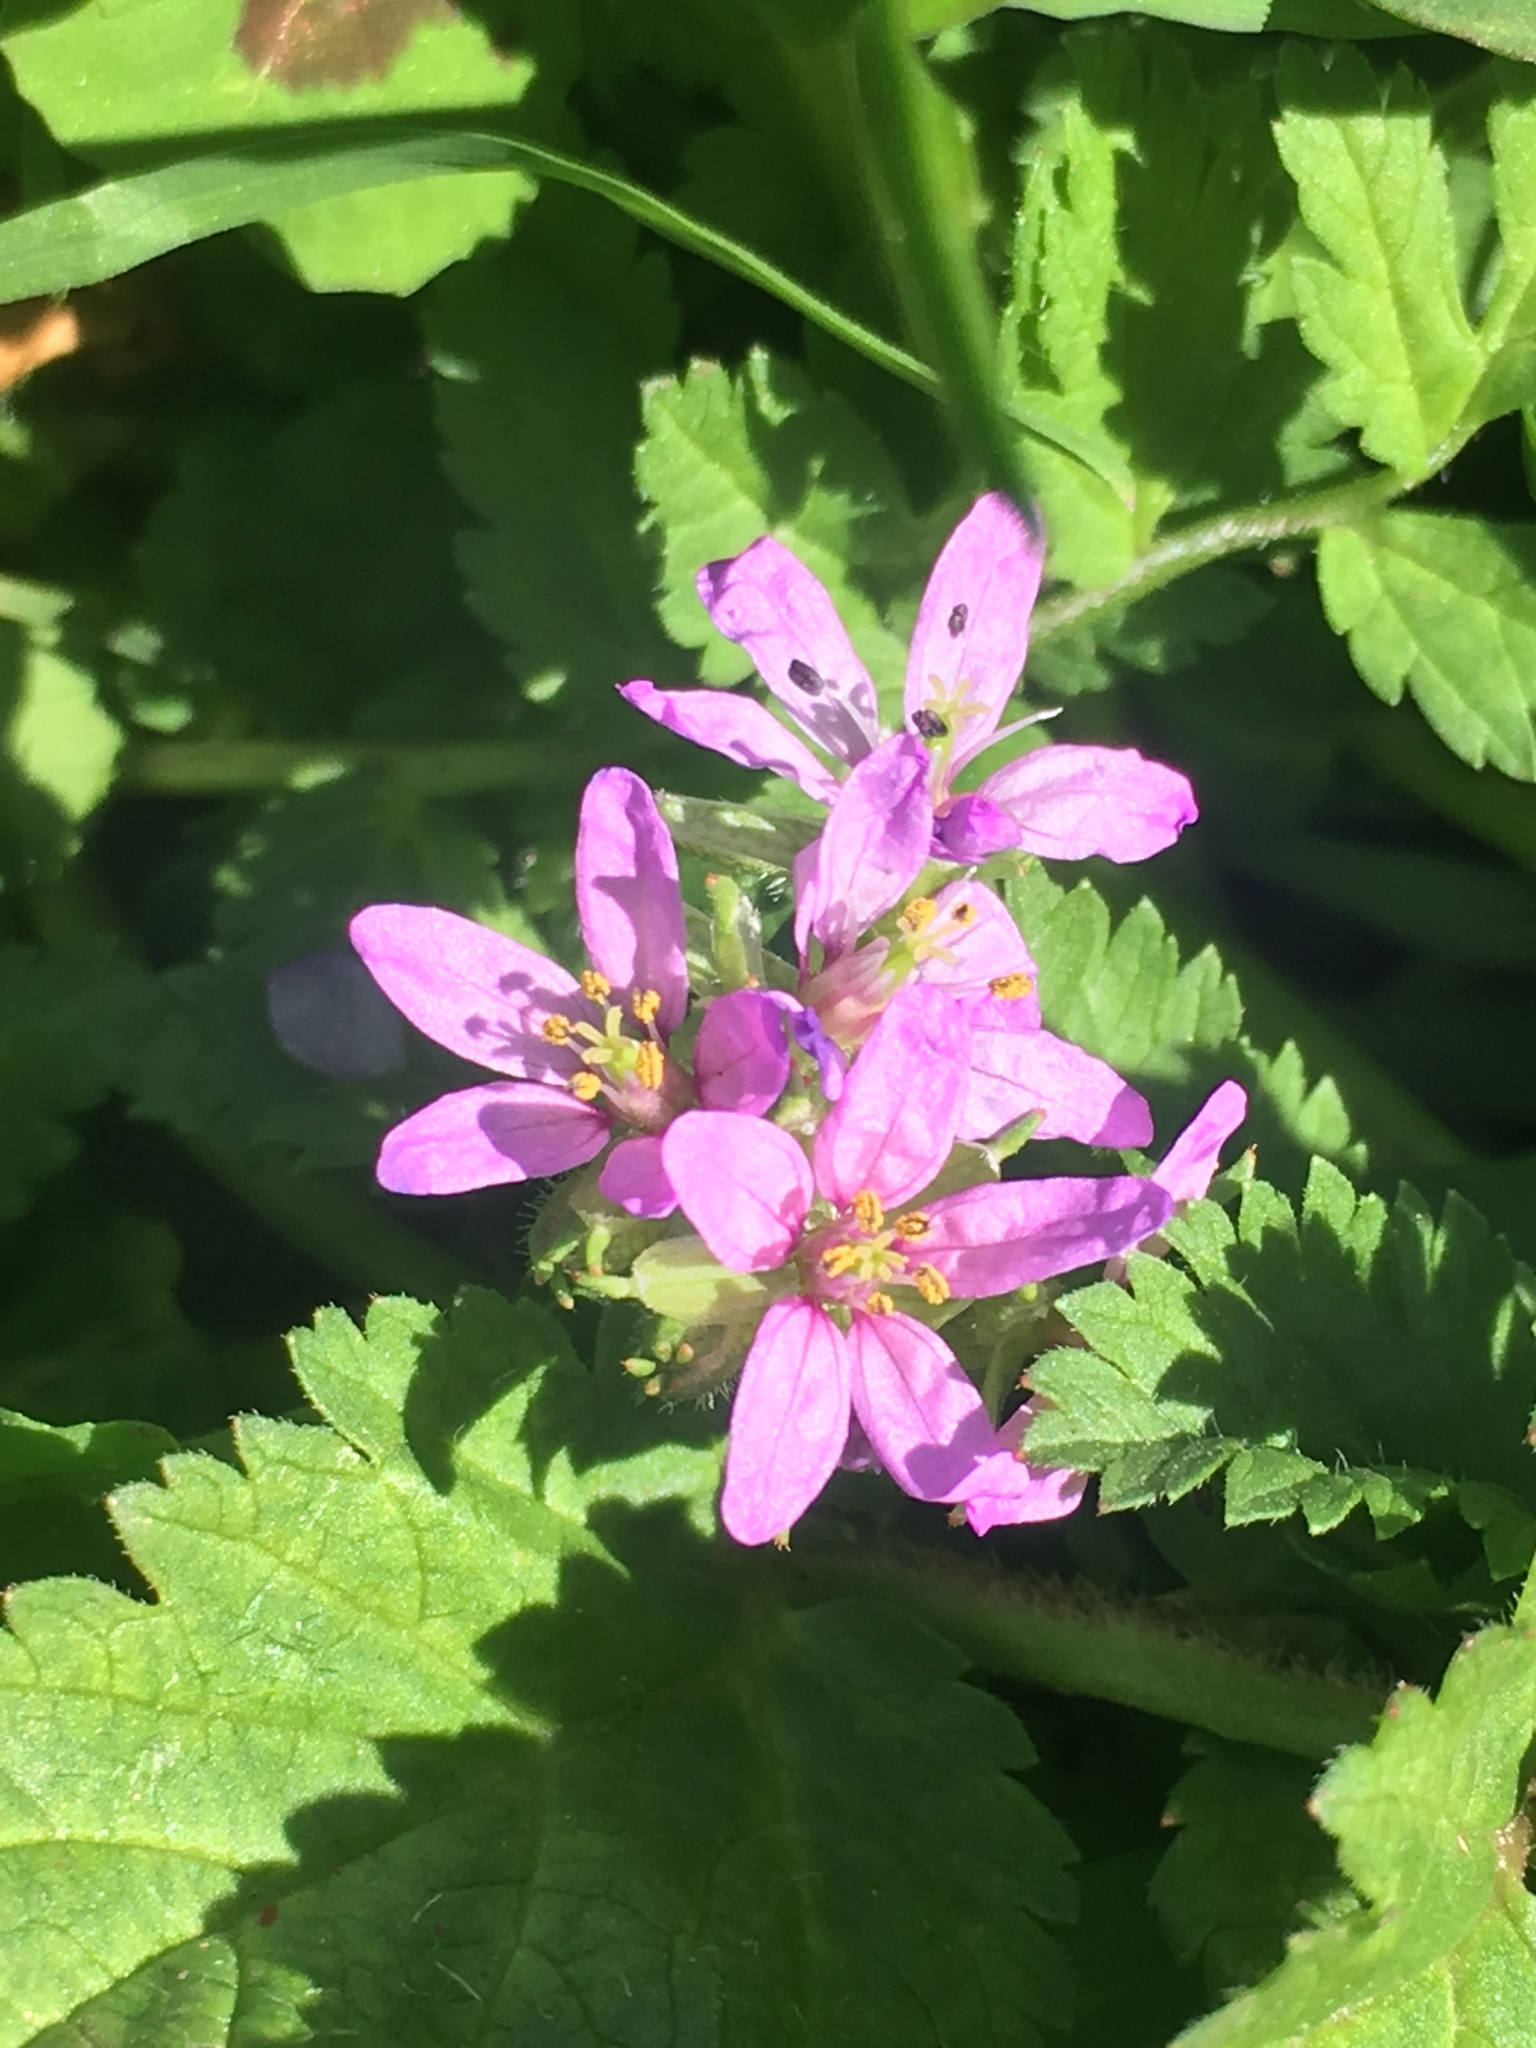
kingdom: Plantae
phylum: Tracheophyta
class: Magnoliopsida
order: Geraniales
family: Geraniaceae
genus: Erodium
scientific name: Erodium moschatum
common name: Musk stork's-bill
